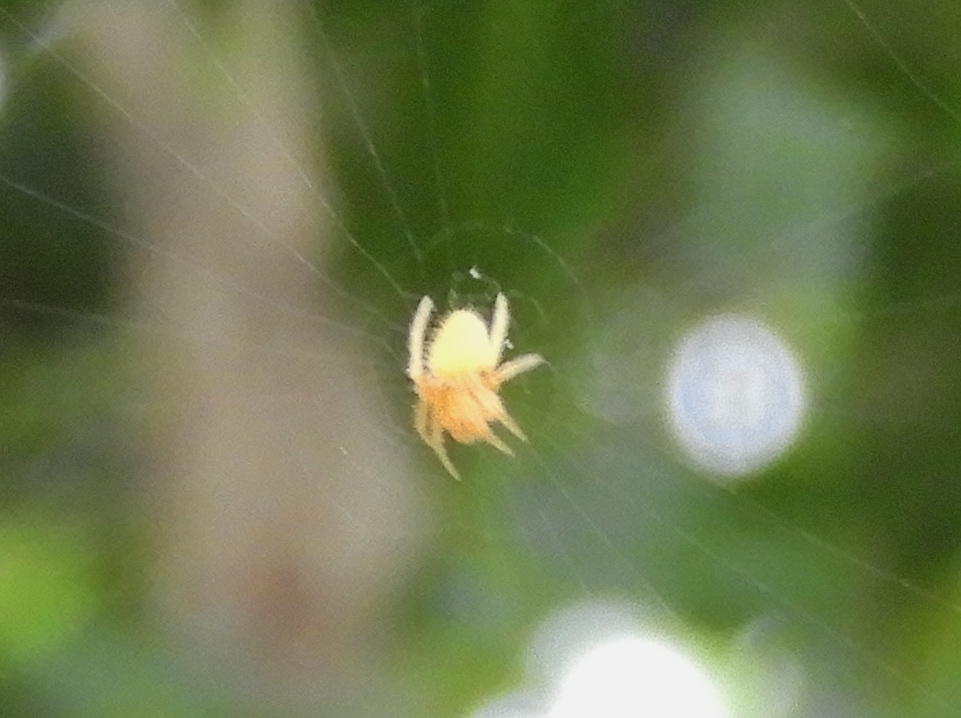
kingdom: Animalia
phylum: Arthropoda
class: Arachnida
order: Araneae
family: Araneidae
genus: Eriophora
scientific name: Eriophora
